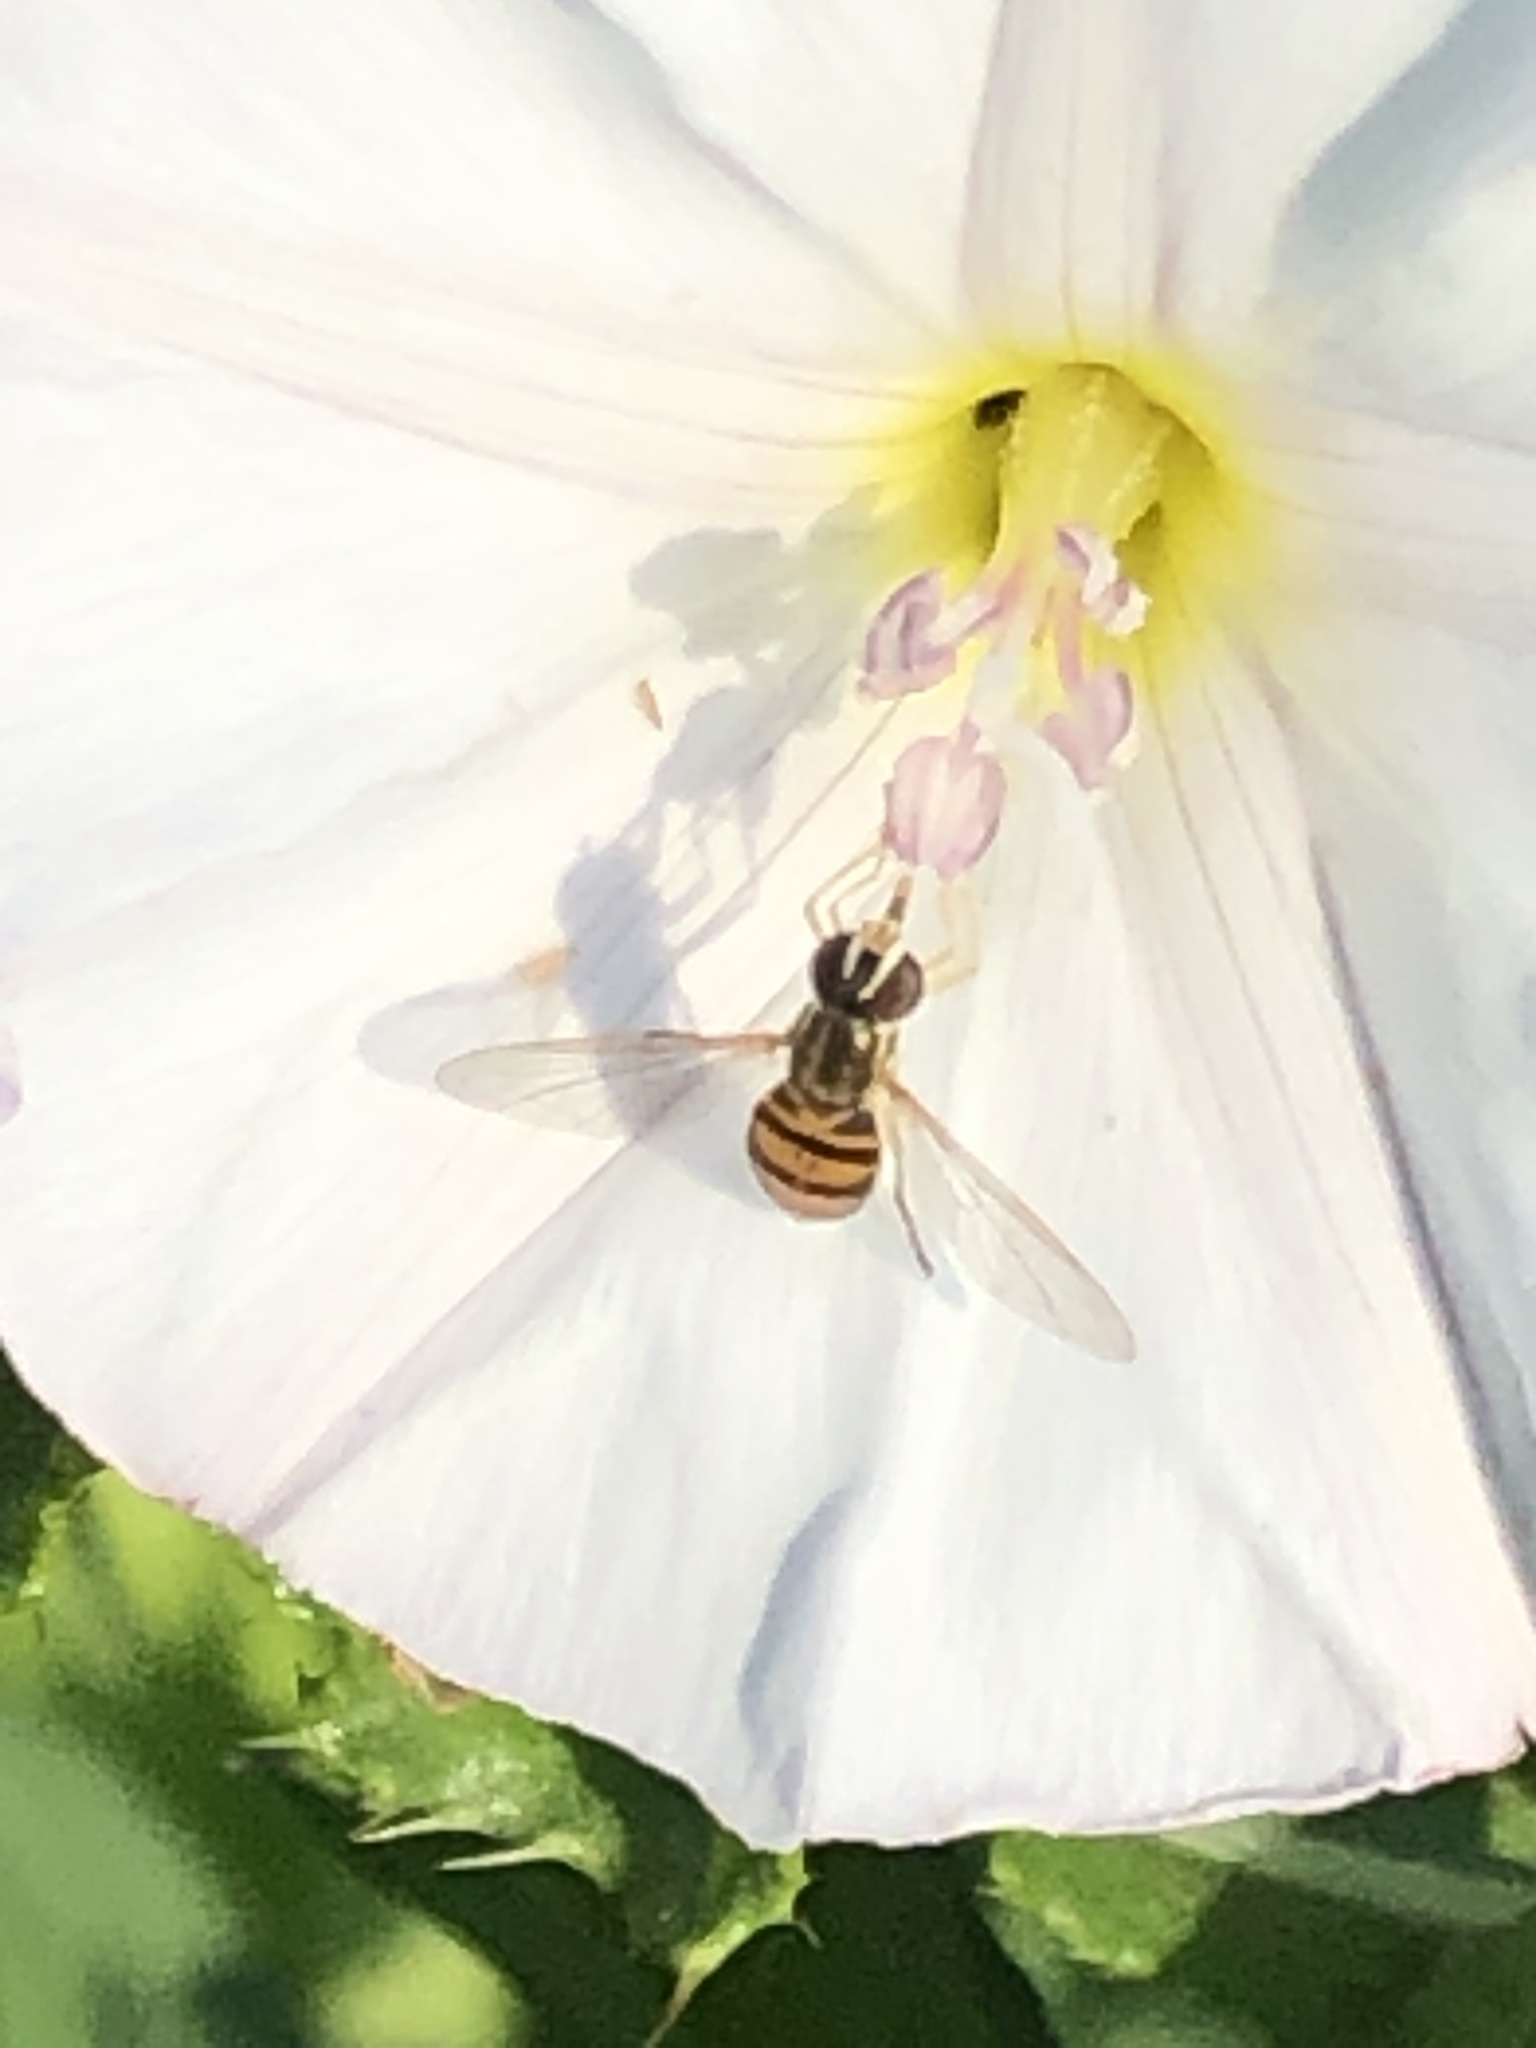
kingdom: Animalia
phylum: Arthropoda
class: Insecta
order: Diptera
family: Syrphidae
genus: Toxomerus
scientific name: Toxomerus marginatus
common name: Syrphid fly
